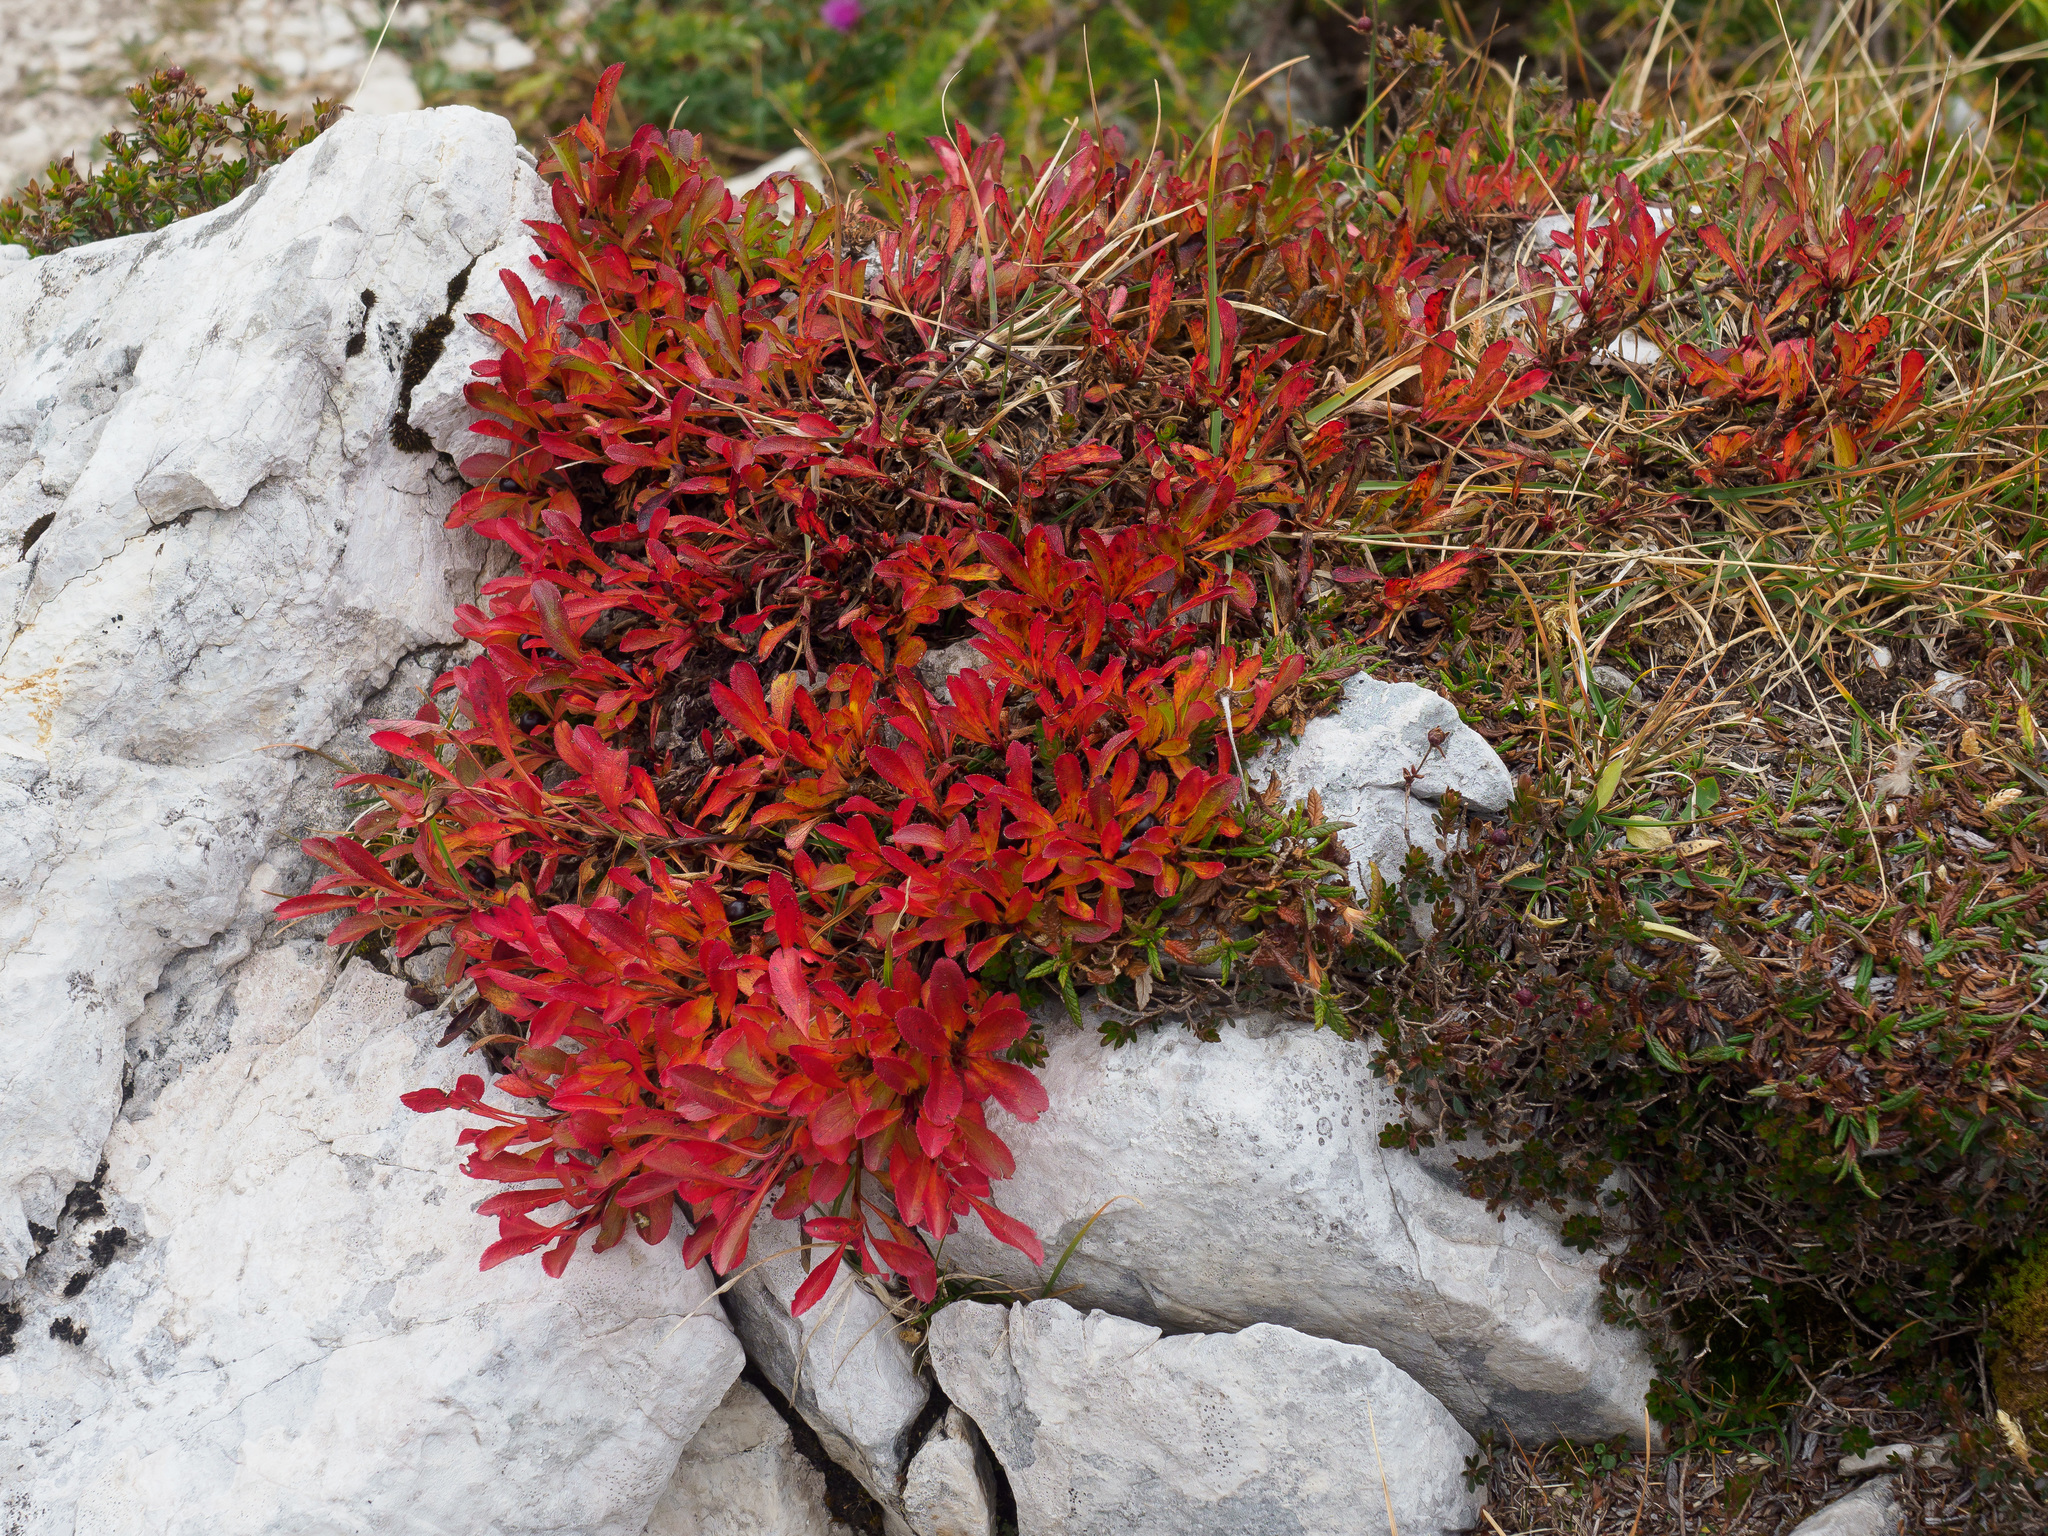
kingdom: Plantae
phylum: Tracheophyta
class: Magnoliopsida
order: Ericales
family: Ericaceae
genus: Arctostaphylos
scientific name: Arctostaphylos alpinus
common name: Alpine bearberry
